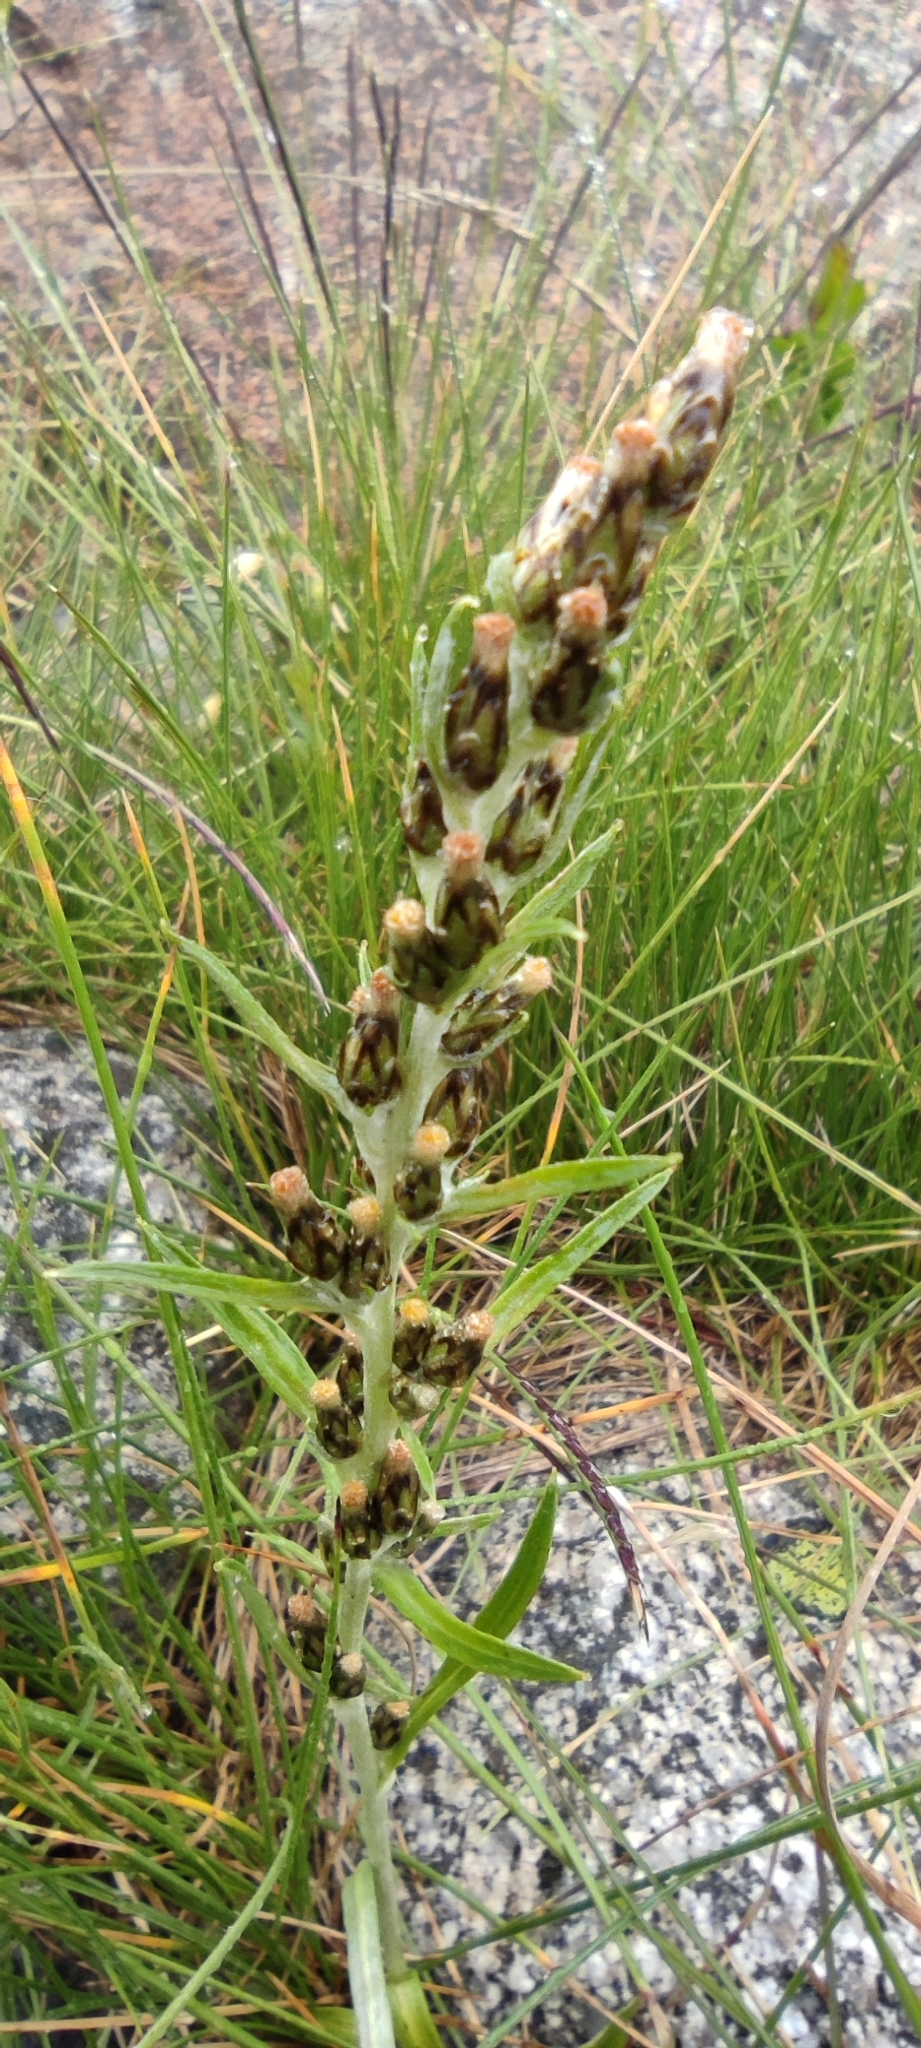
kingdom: Plantae
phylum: Tracheophyta
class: Magnoliopsida
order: Asterales
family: Asteraceae
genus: Omalotheca
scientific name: Omalotheca sylvatica
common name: Heath cudweed
